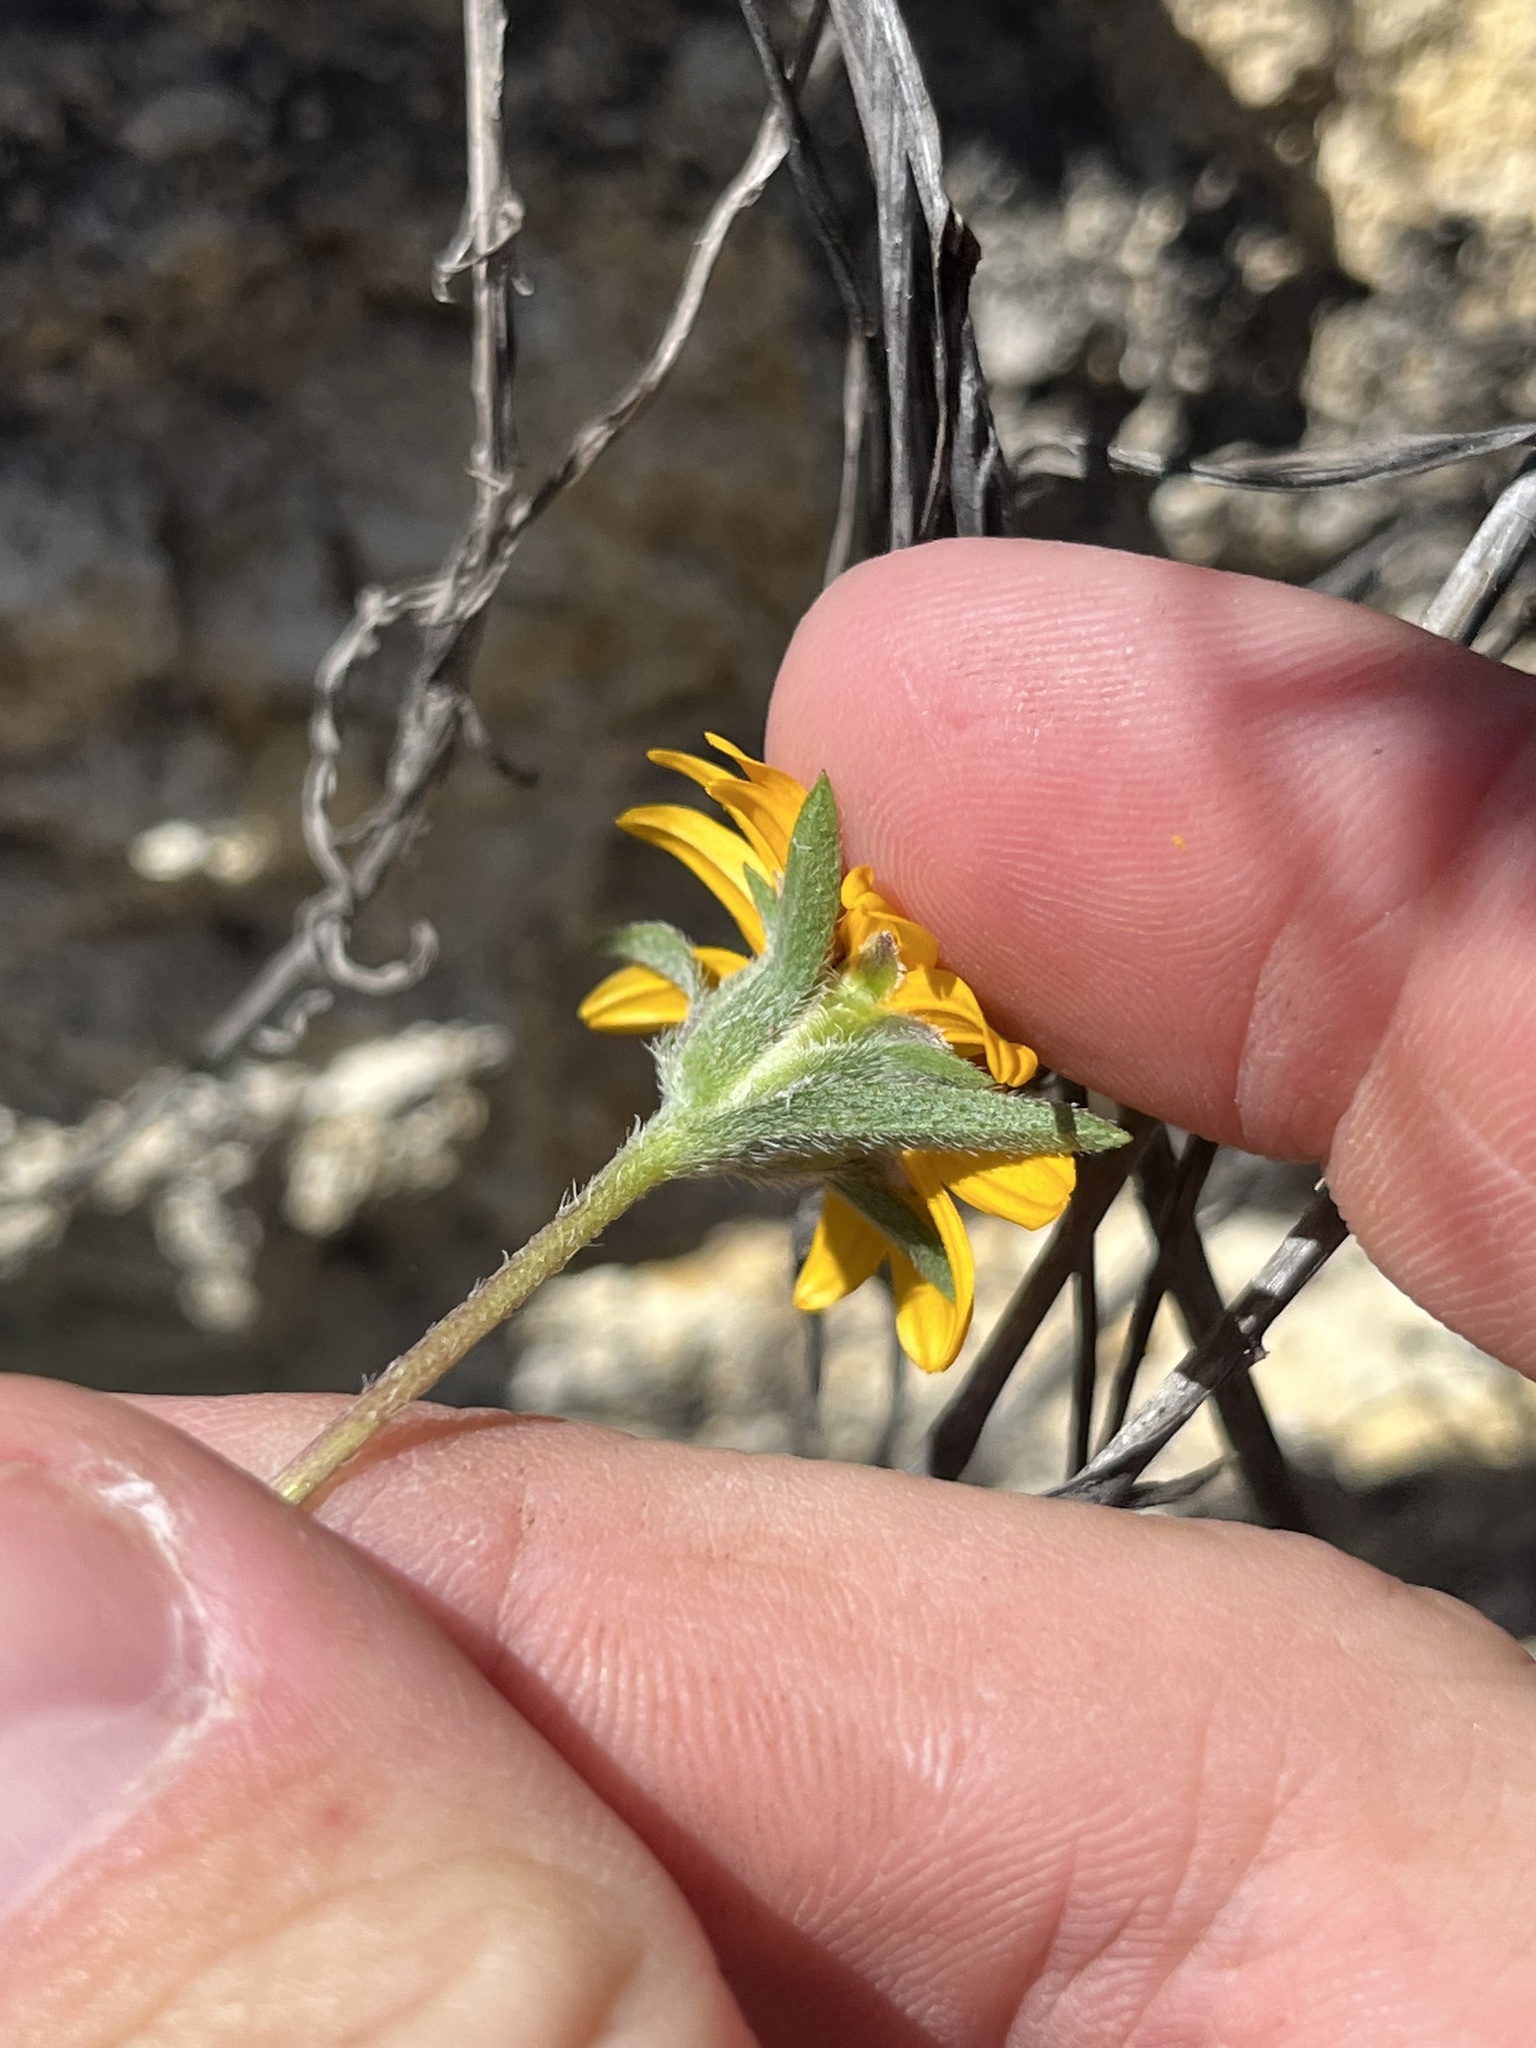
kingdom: Plantae
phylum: Tracheophyta
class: Magnoliopsida
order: Asterales
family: Asteraceae
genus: Wedelia
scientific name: Wedelia acapulcensis
